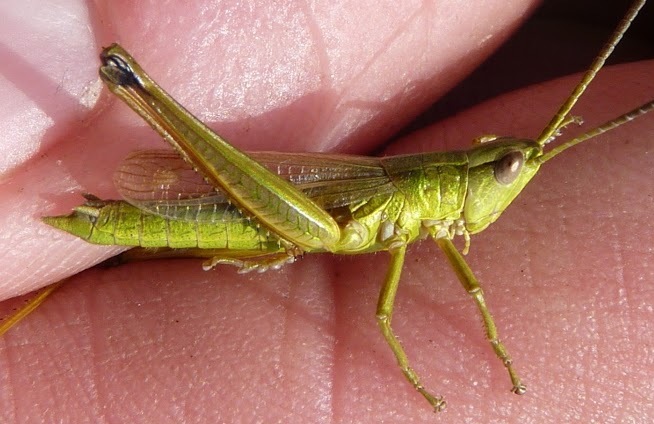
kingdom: Animalia
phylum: Arthropoda
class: Insecta
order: Orthoptera
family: Acrididae
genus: Chrysochraon
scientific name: Chrysochraon dispar
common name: Large gold grasshopper
